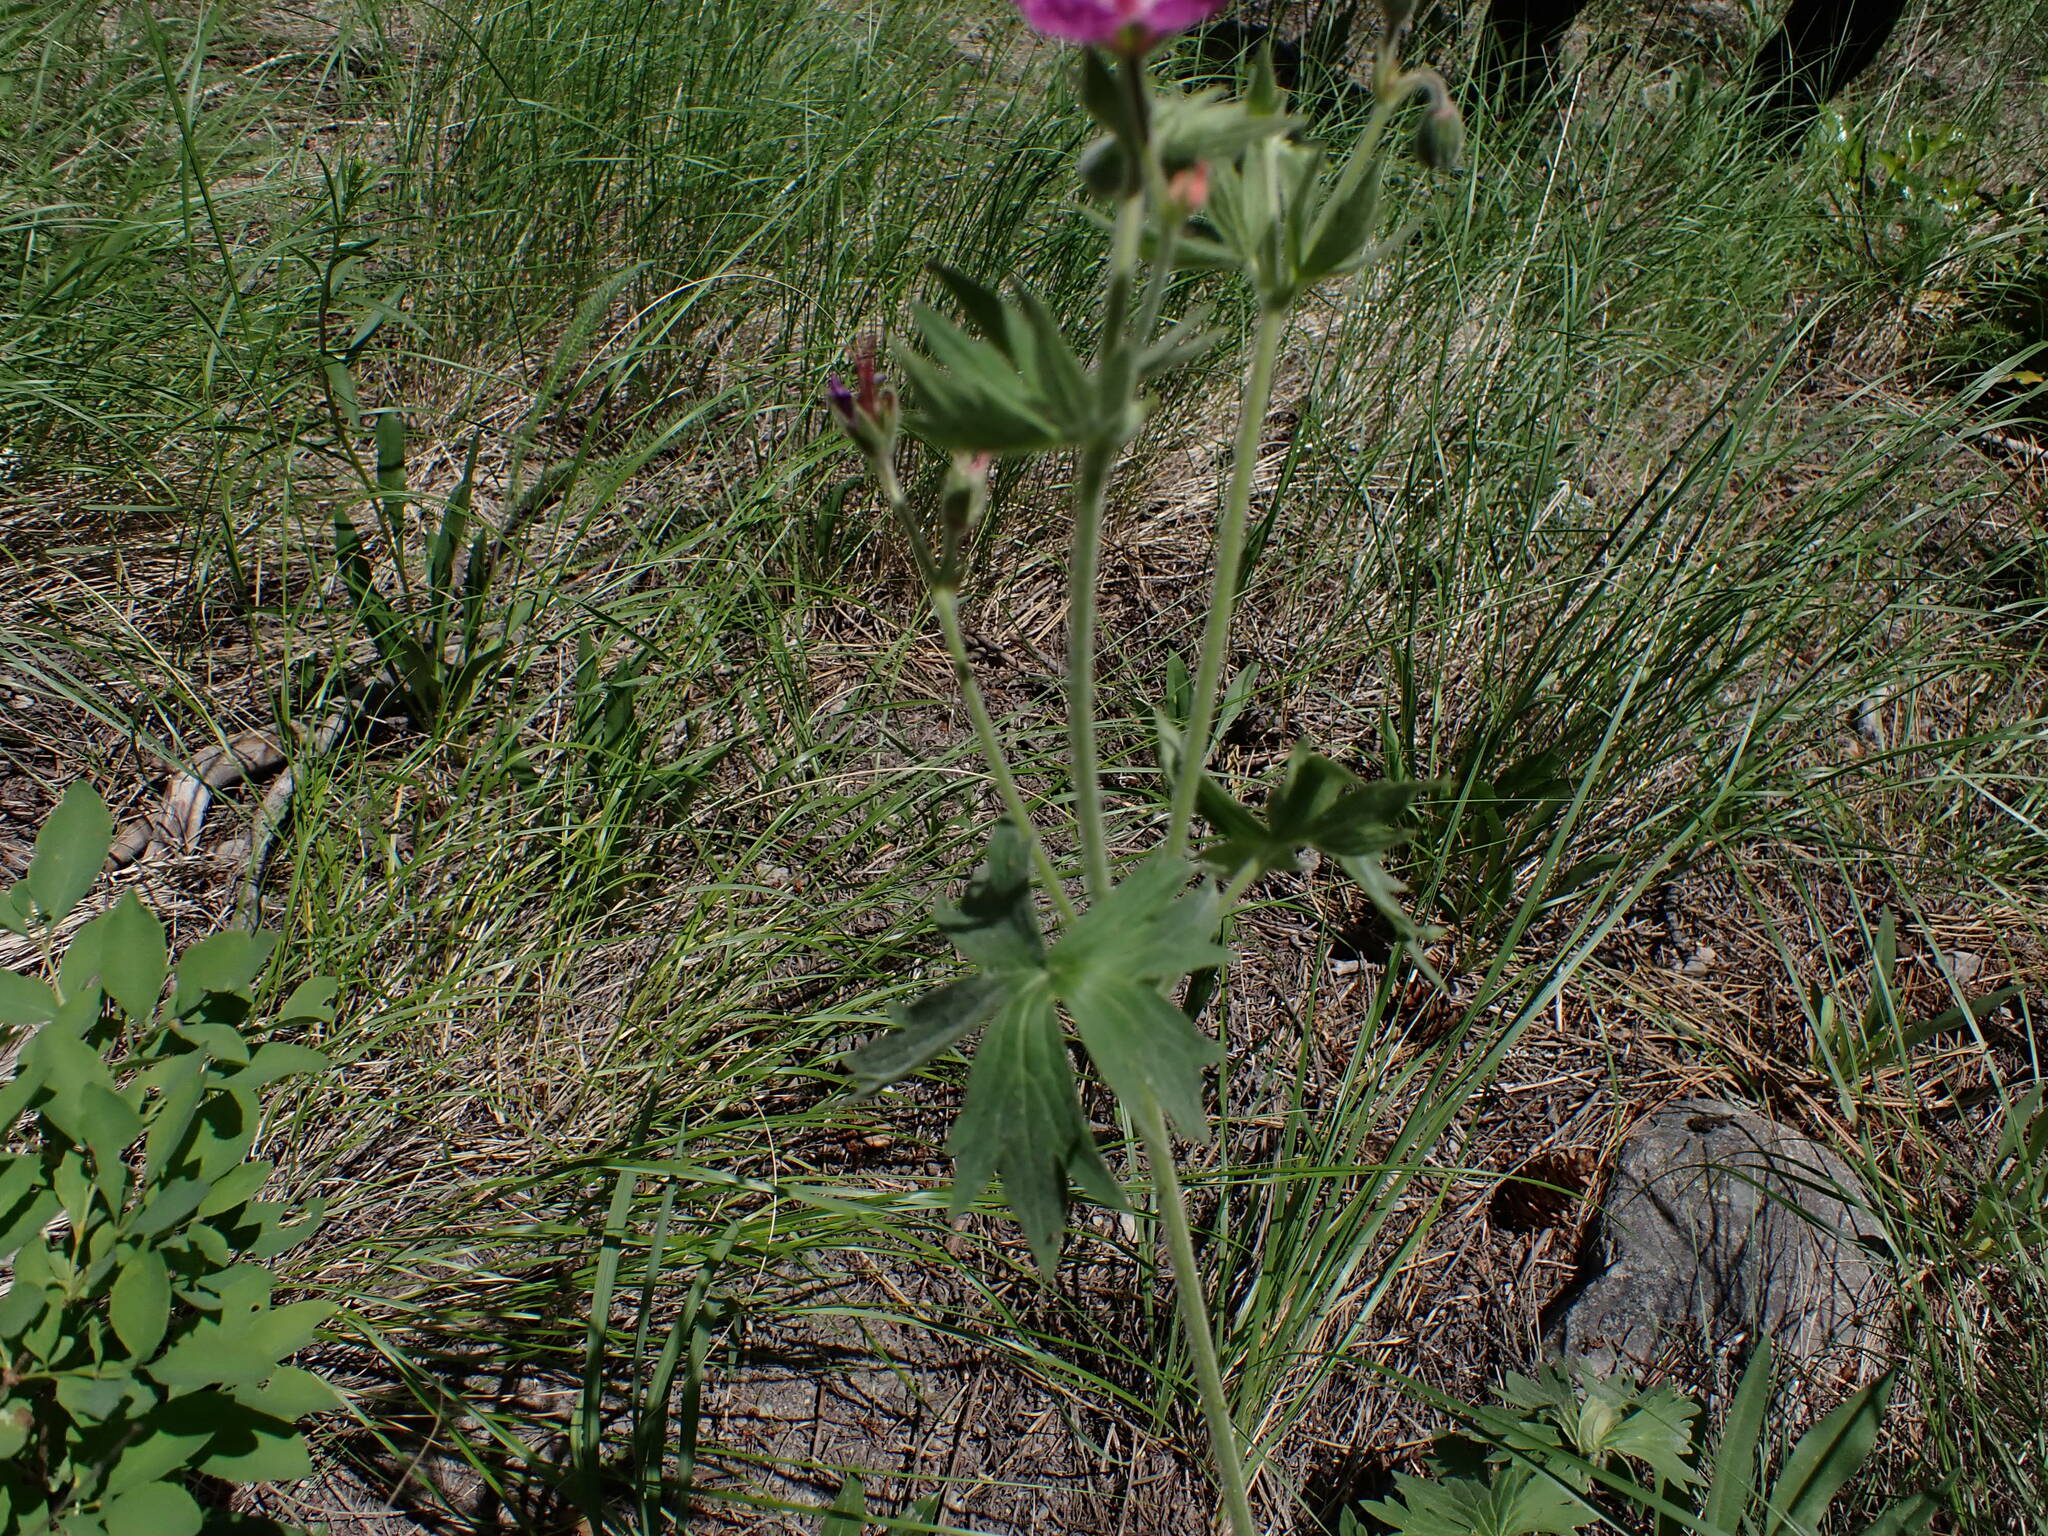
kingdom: Plantae
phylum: Tracheophyta
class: Magnoliopsida
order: Geraniales
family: Geraniaceae
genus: Geranium
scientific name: Geranium viscosissimum
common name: Purple geranium
